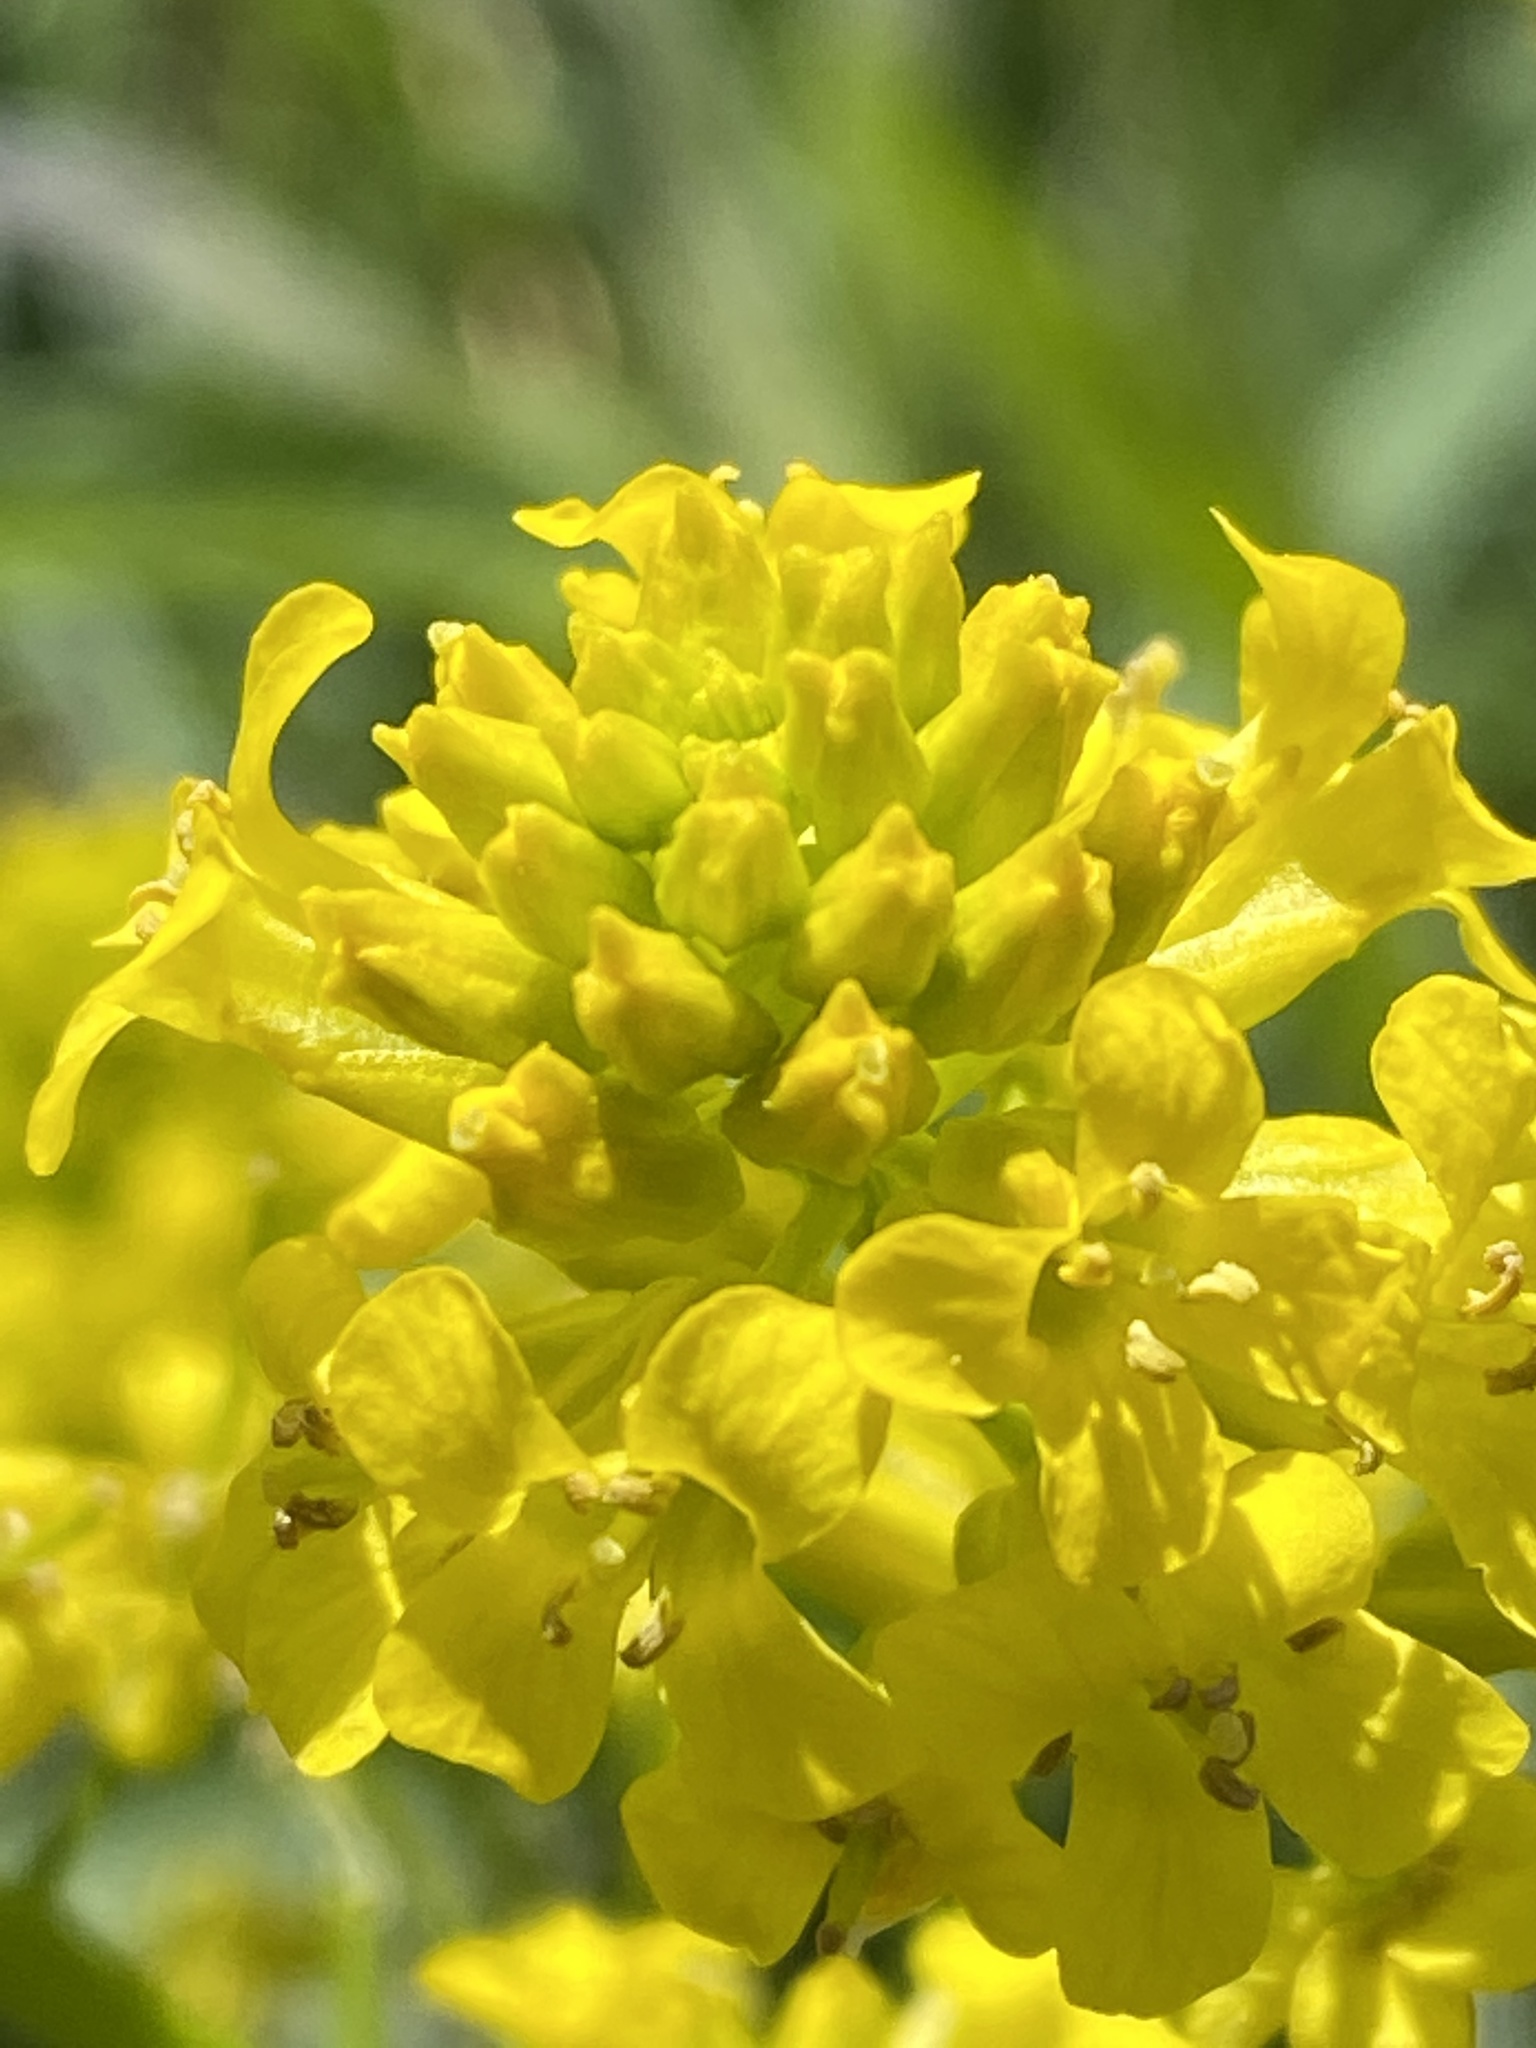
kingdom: Plantae
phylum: Tracheophyta
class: Magnoliopsida
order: Brassicales
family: Brassicaceae
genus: Barbarea
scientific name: Barbarea vulgaris
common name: Cressy-greens
